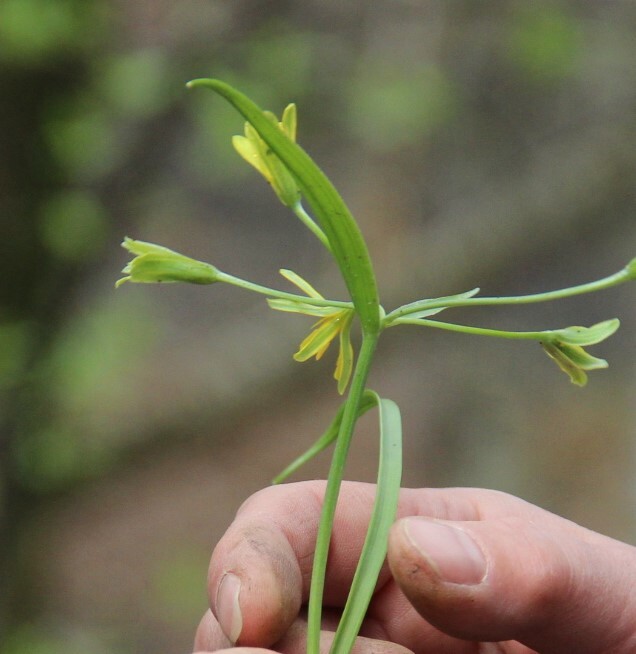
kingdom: Plantae
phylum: Tracheophyta
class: Liliopsida
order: Liliales
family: Liliaceae
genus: Gagea
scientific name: Gagea lutea
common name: Yellow star-of-bethlehem
